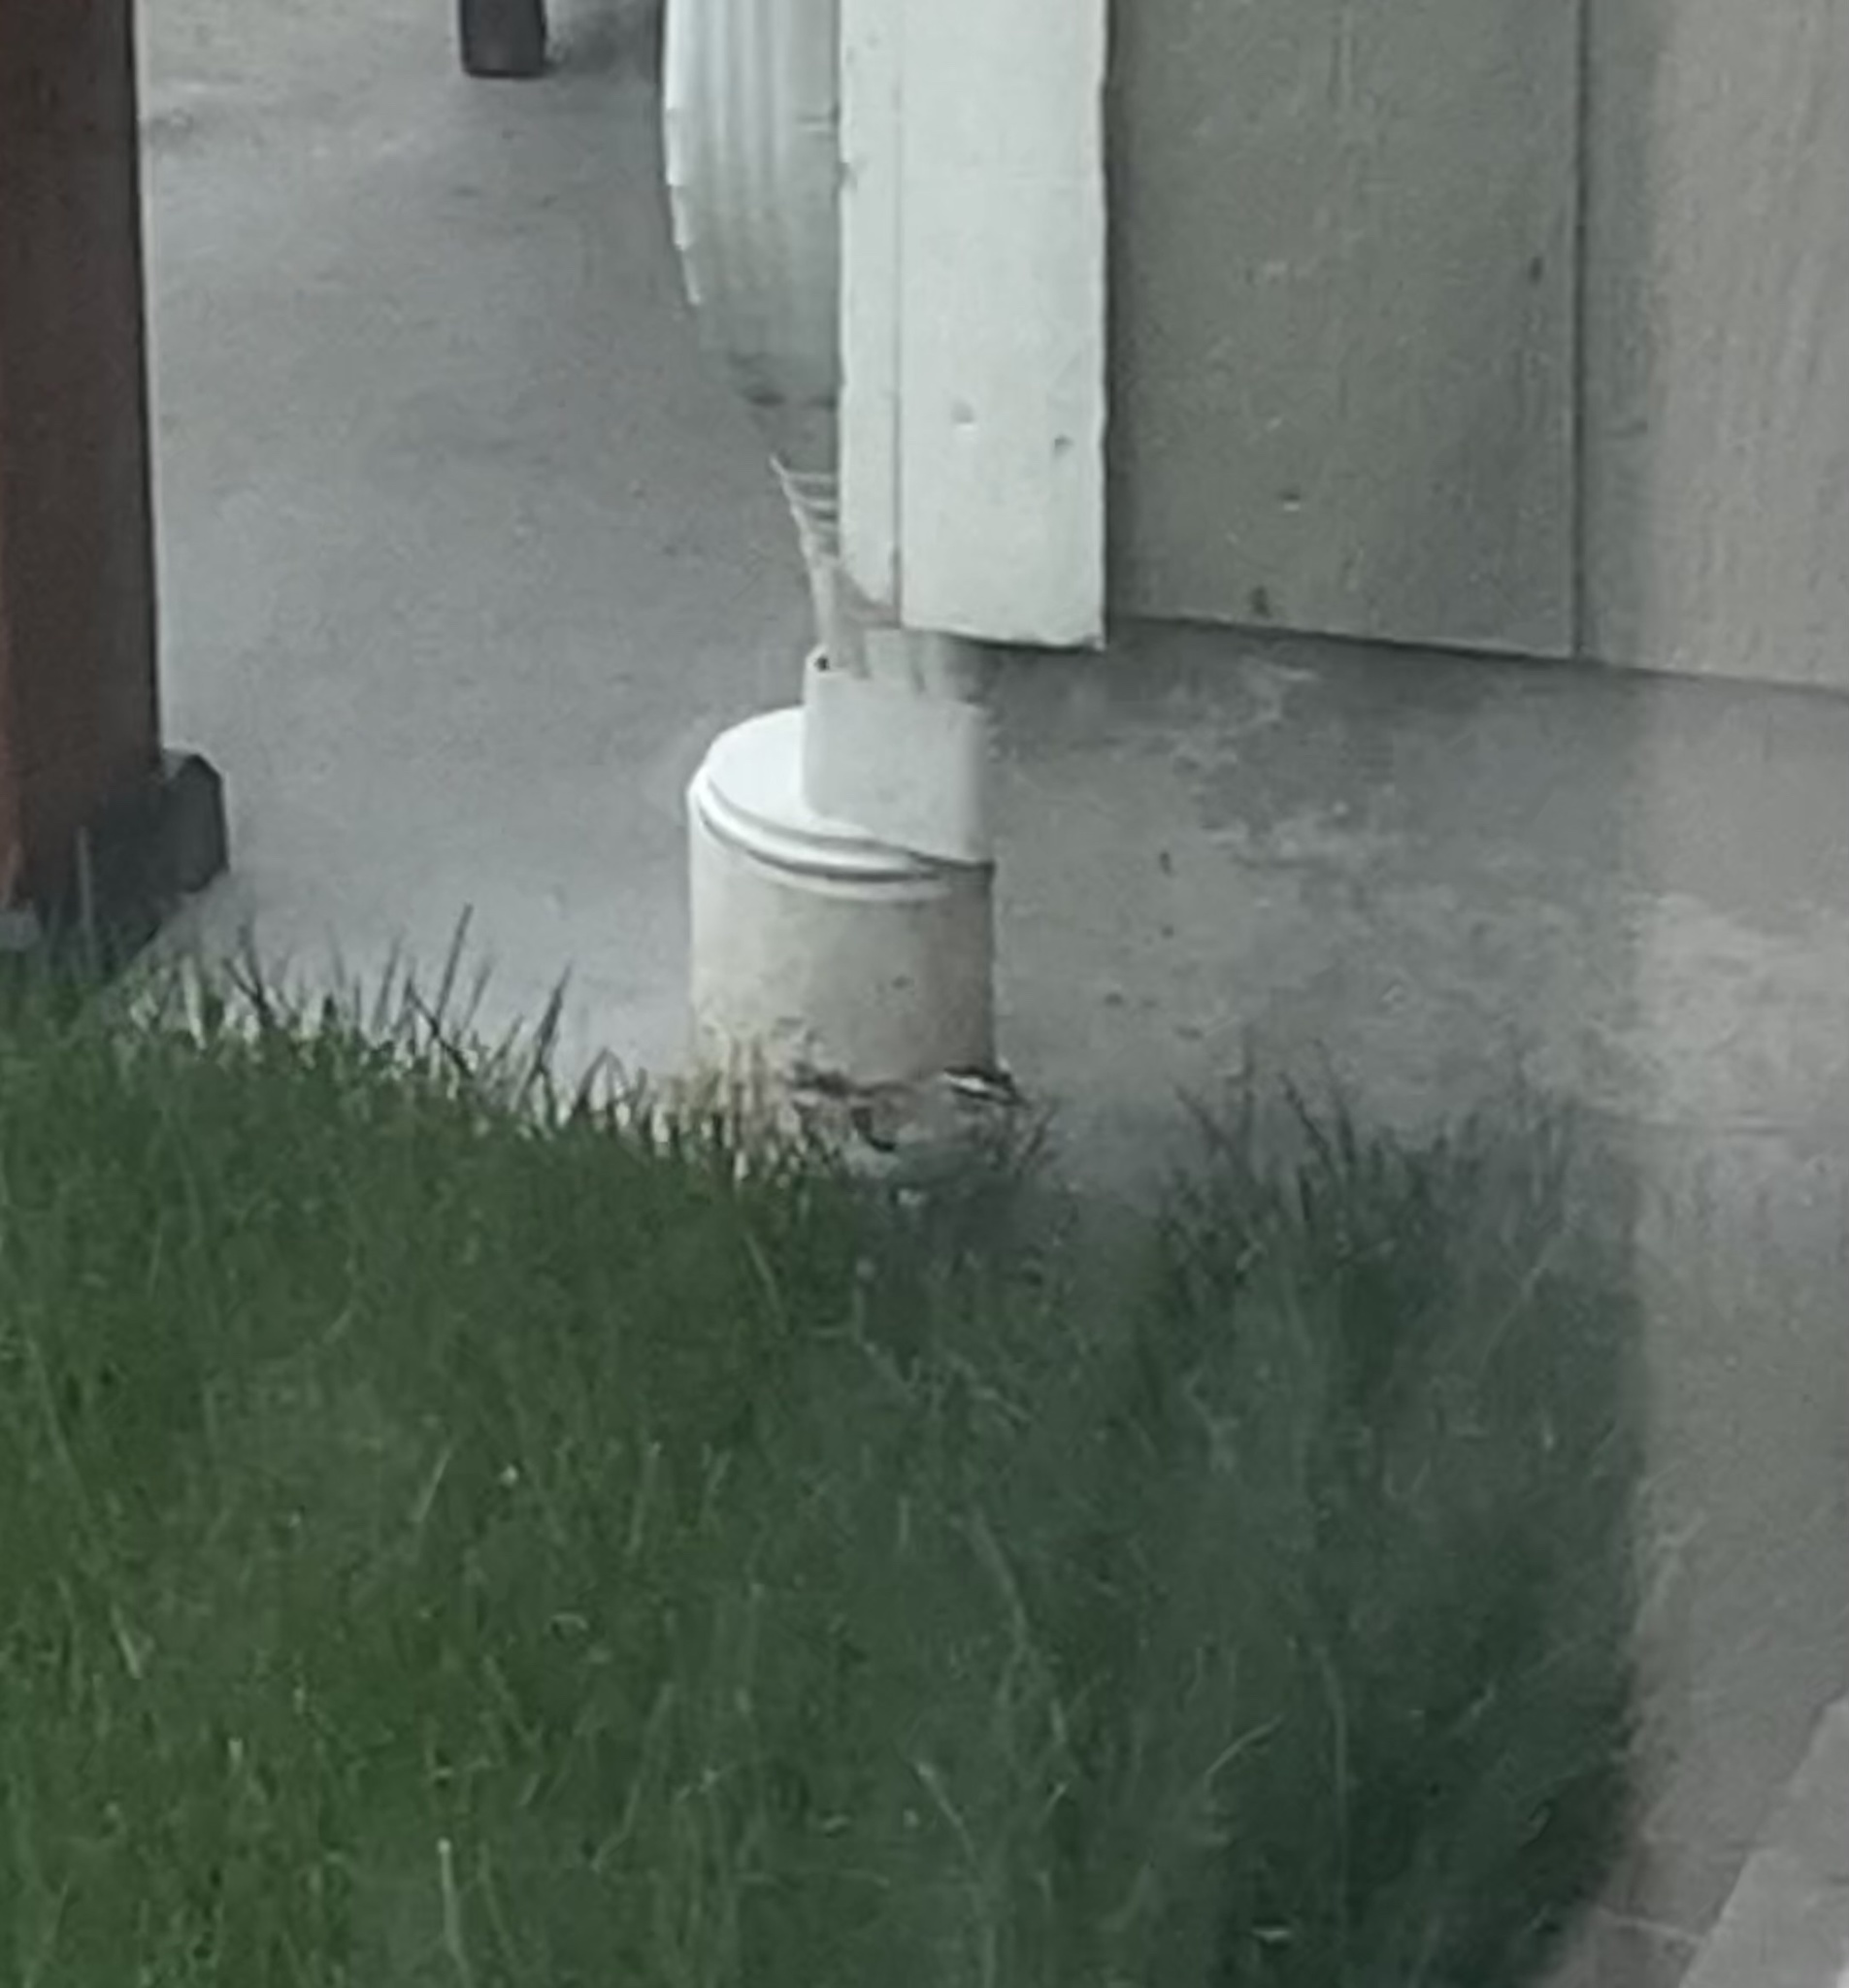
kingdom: Animalia
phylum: Chordata
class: Aves
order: Passeriformes
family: Passerellidae
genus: Spizella
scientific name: Spizella passerina
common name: Chipping sparrow
